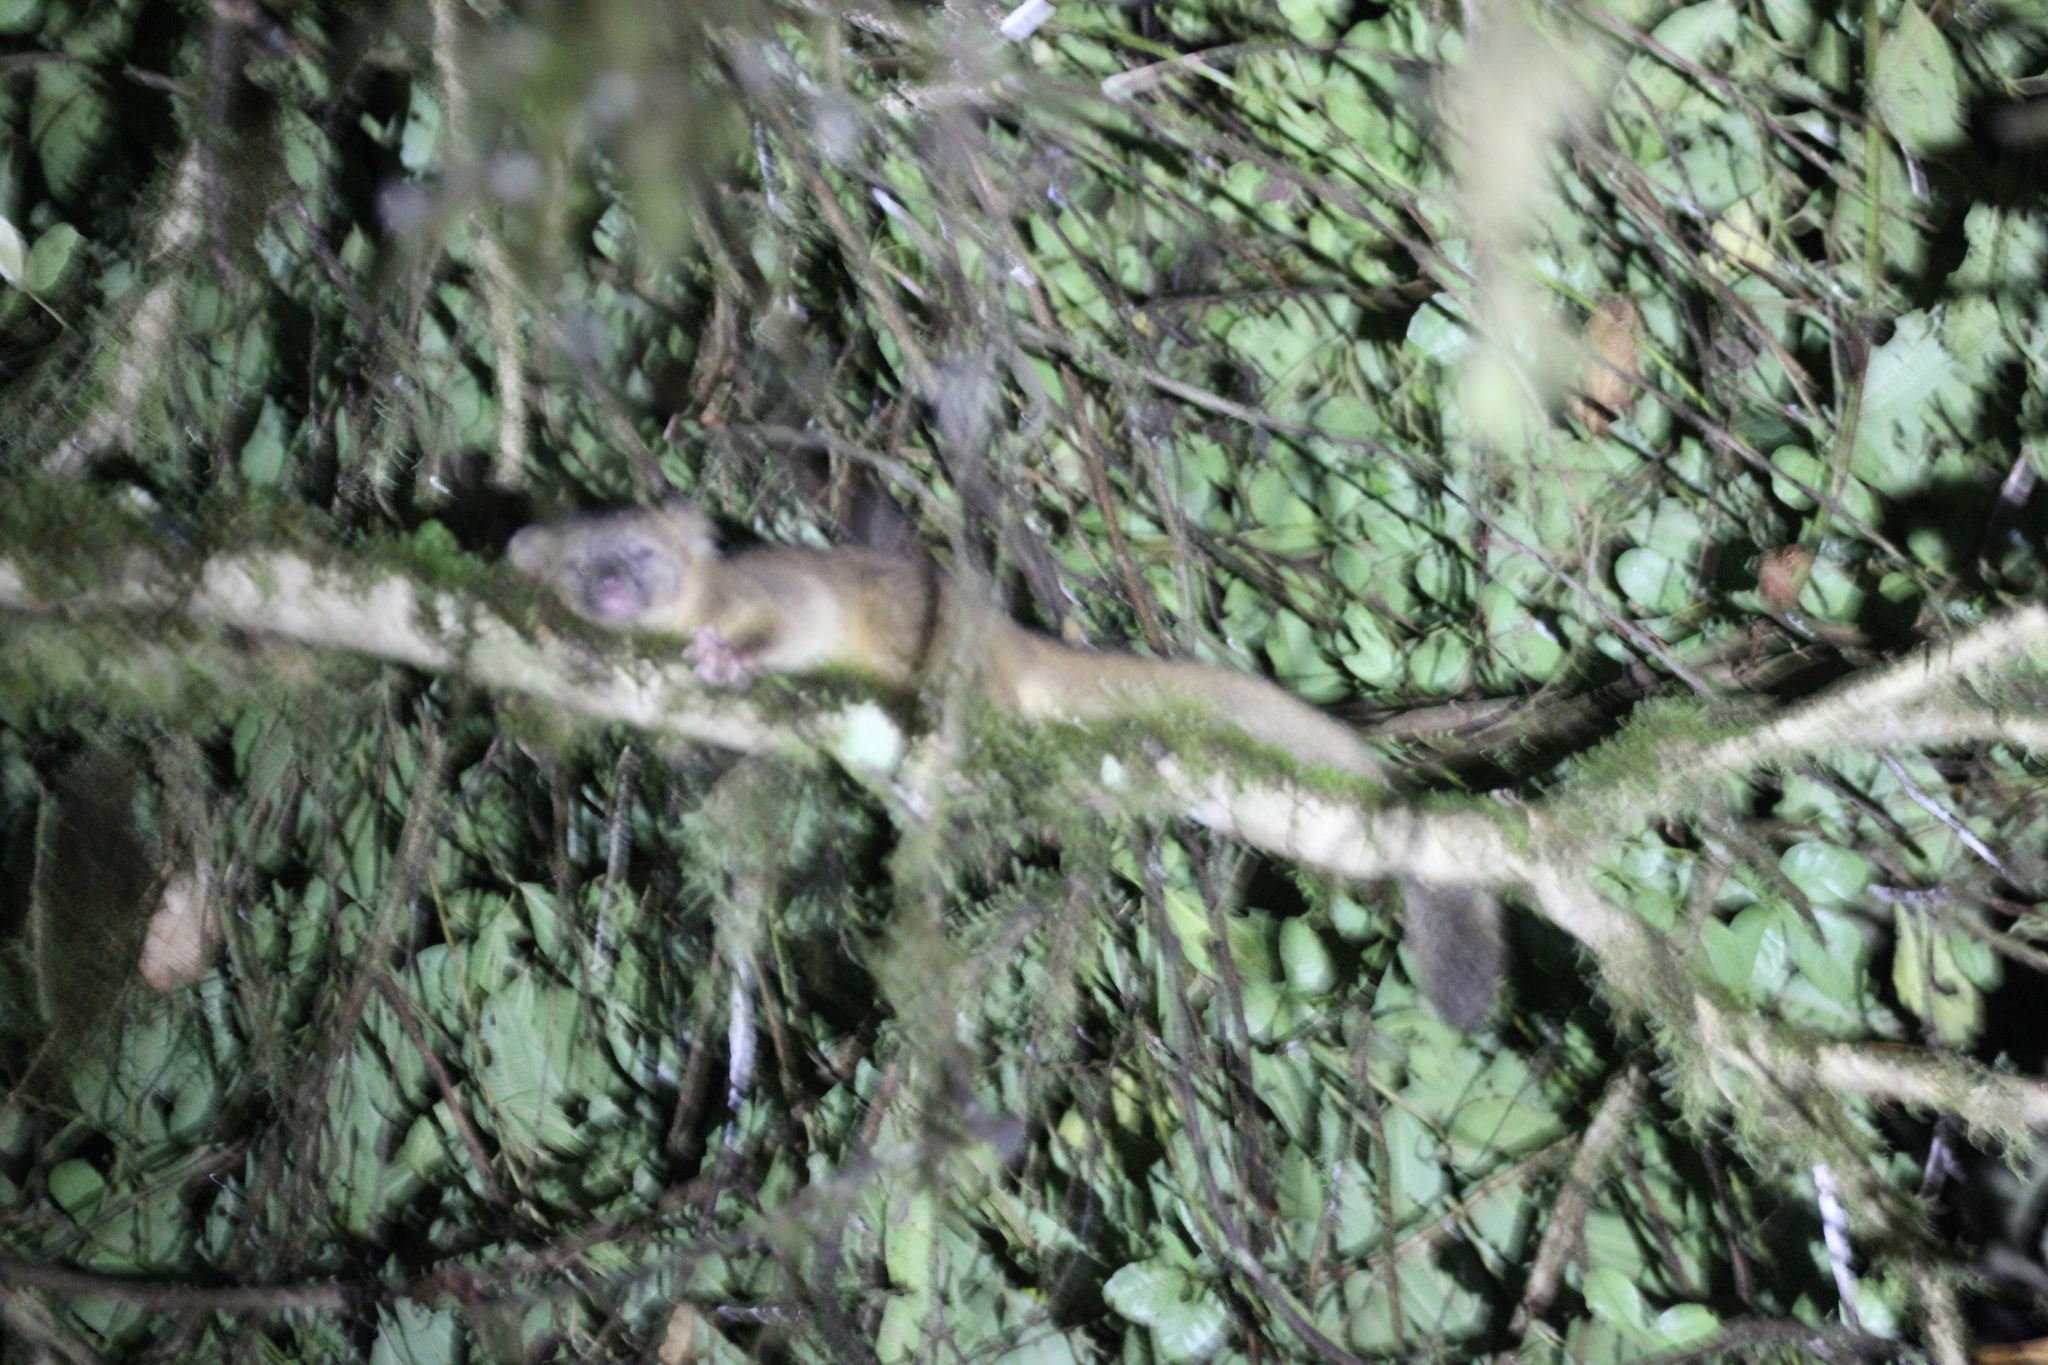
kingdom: Animalia
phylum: Chordata
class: Mammalia
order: Carnivora
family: Procyonidae
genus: Bassaricyon
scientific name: Bassaricyon neblina
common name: Olinguito
